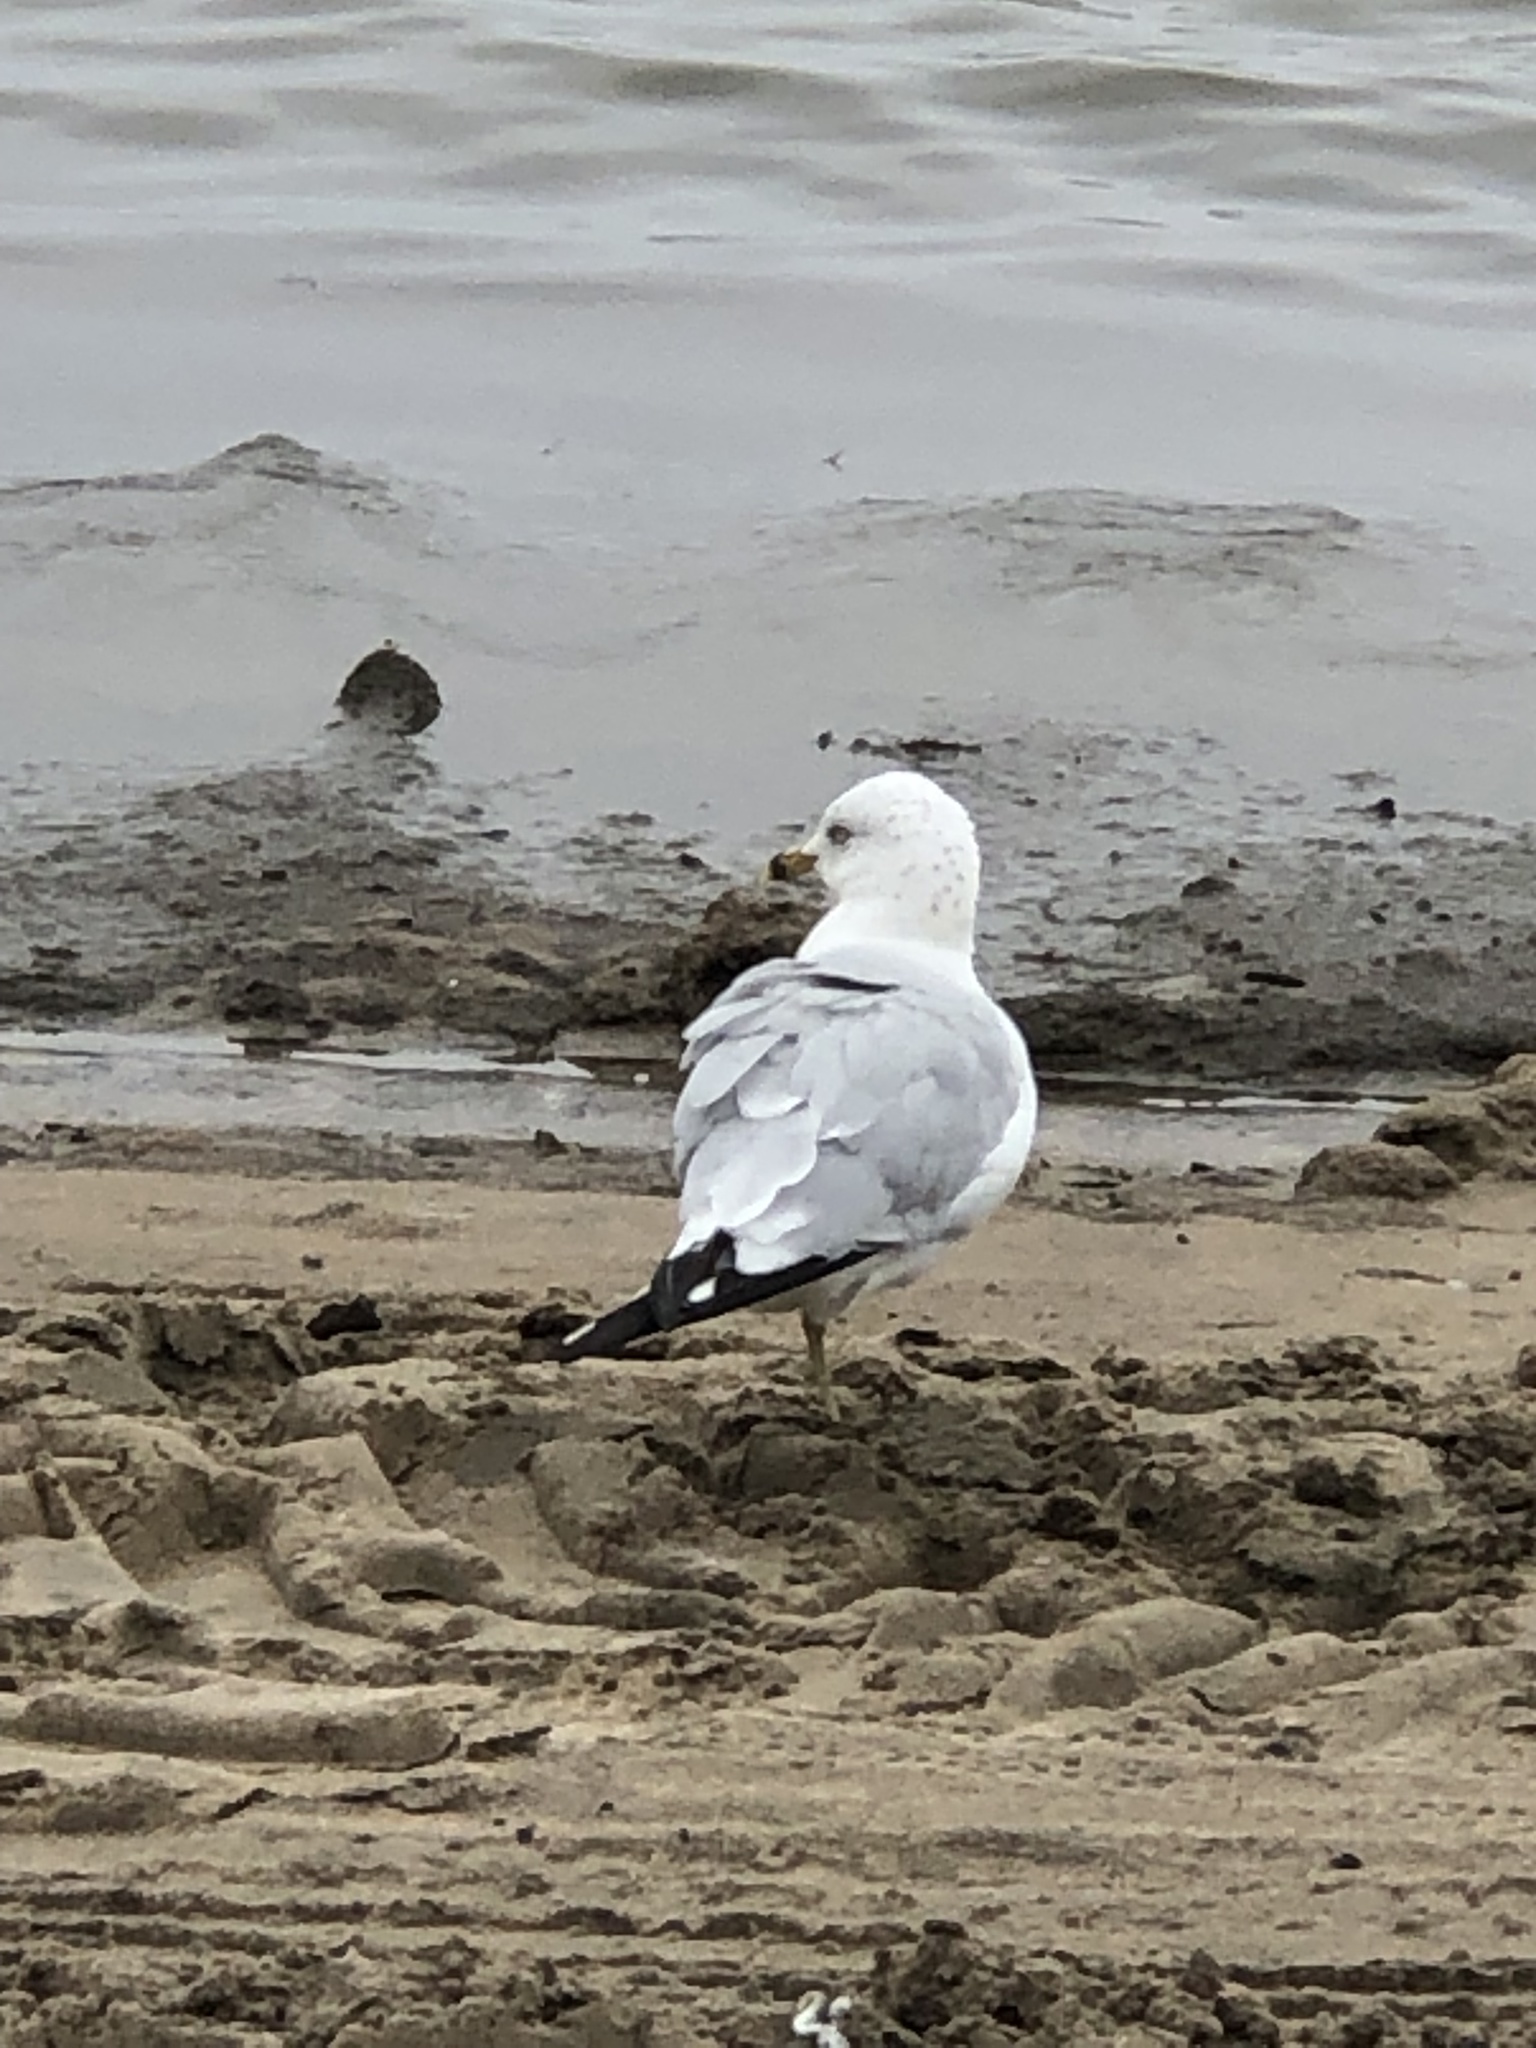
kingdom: Animalia
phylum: Chordata
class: Aves
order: Charadriiformes
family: Laridae
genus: Larus
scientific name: Larus delawarensis
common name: Ring-billed gull
